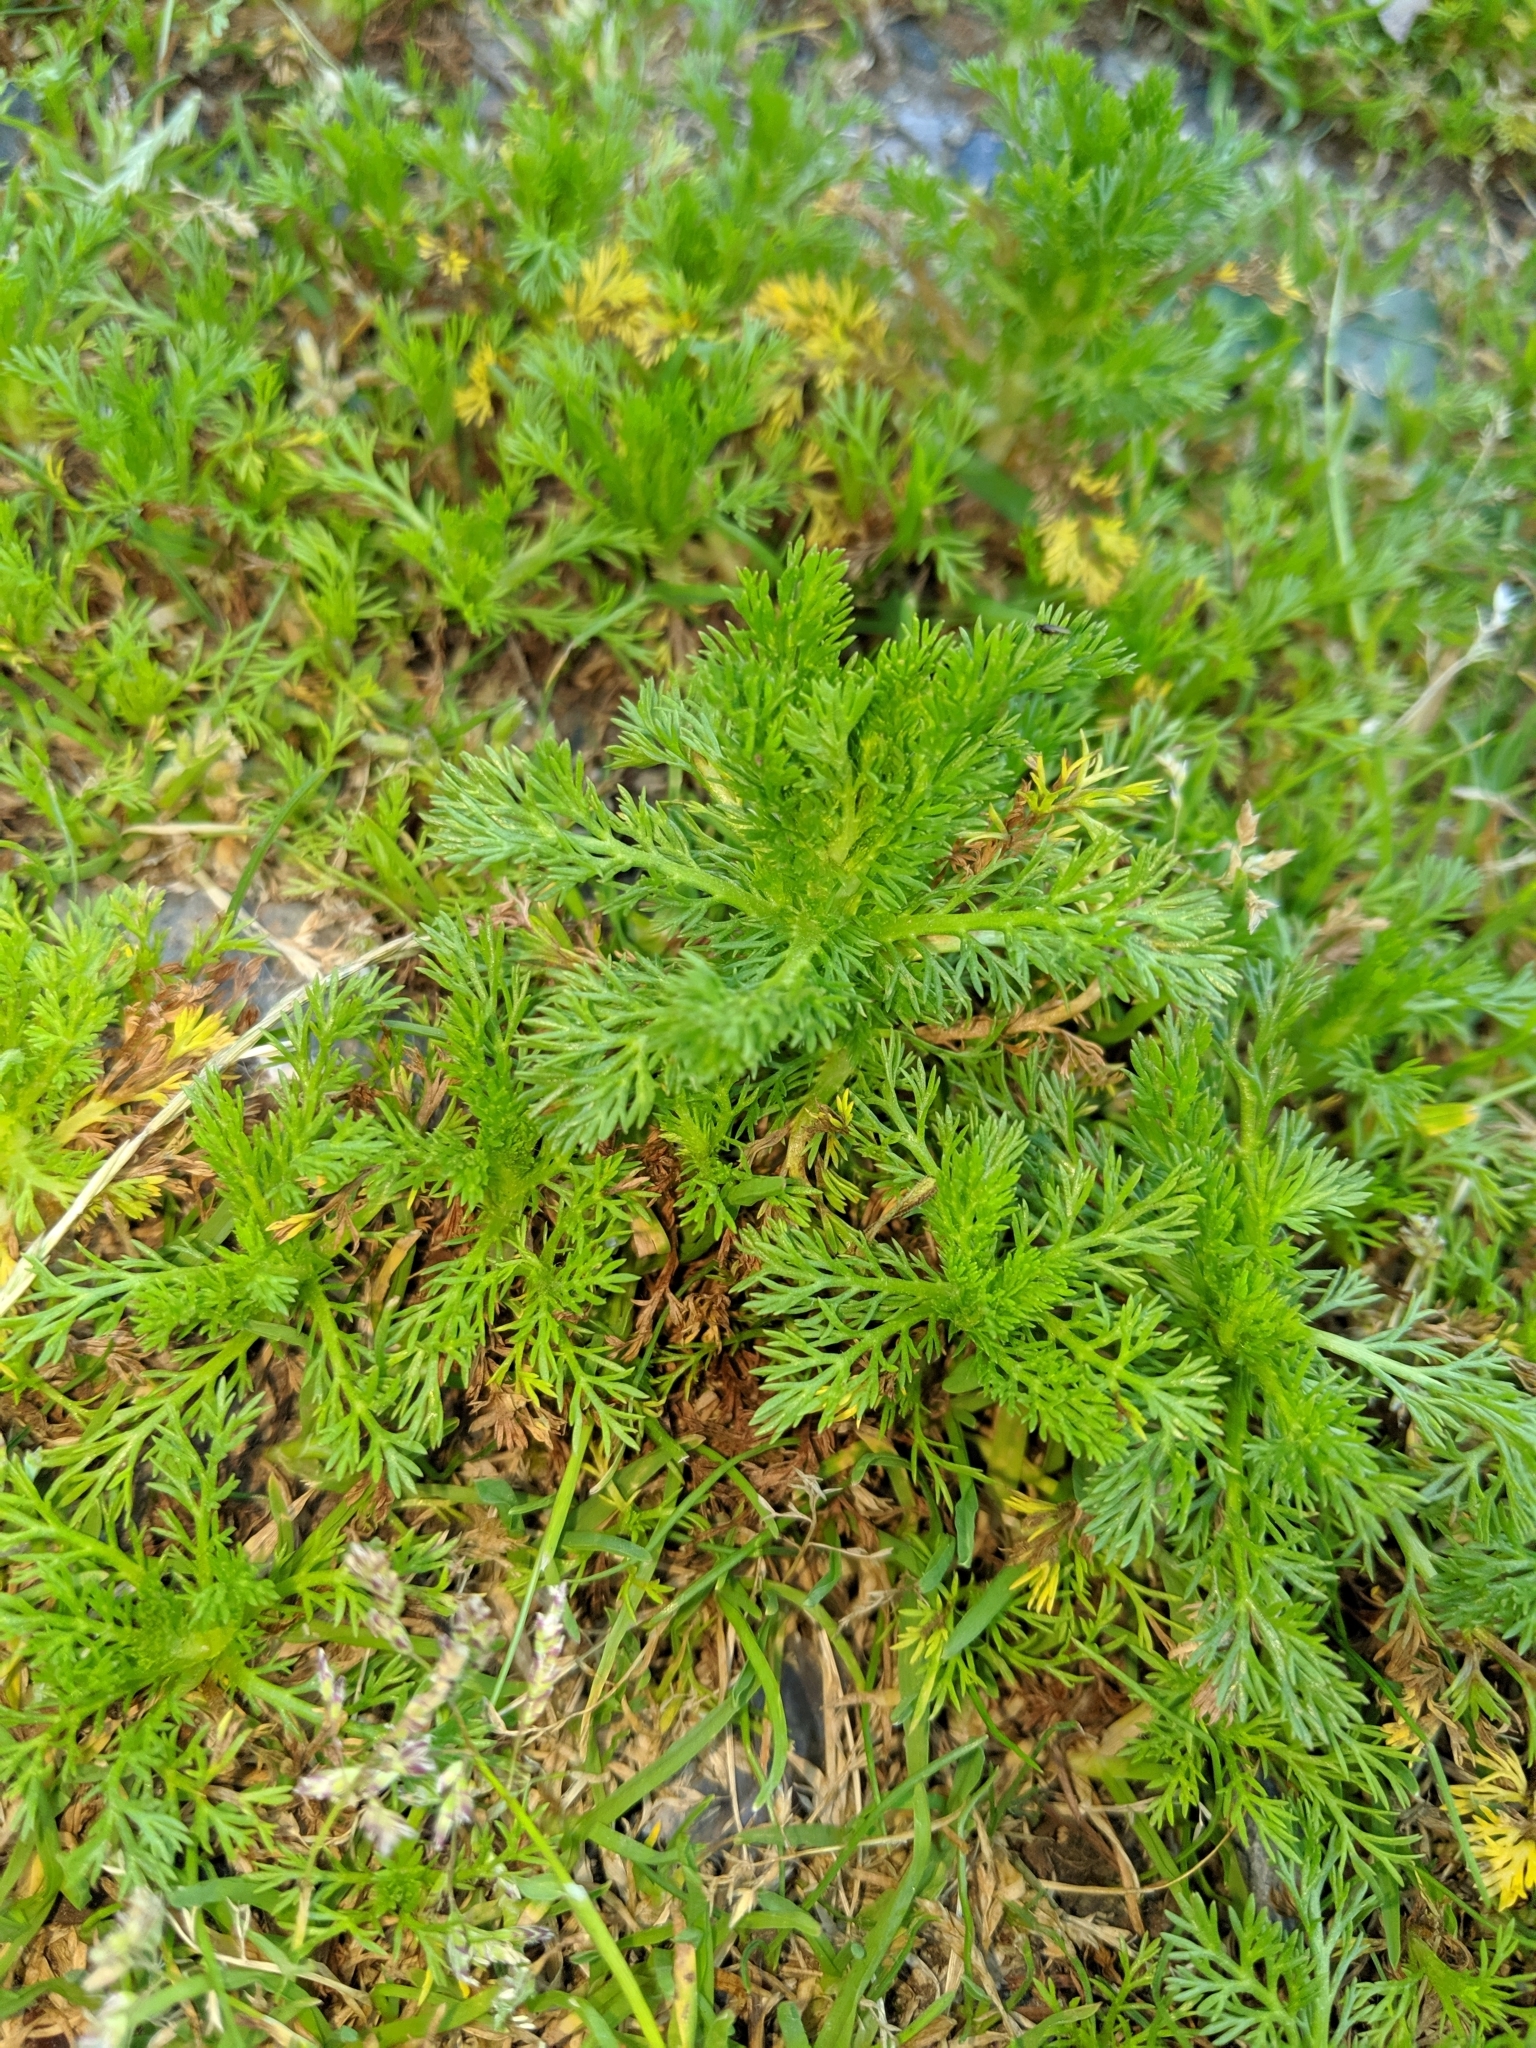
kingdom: Plantae
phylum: Tracheophyta
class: Magnoliopsida
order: Asterales
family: Asteraceae
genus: Matricaria
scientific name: Matricaria discoidea
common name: Disc mayweed
